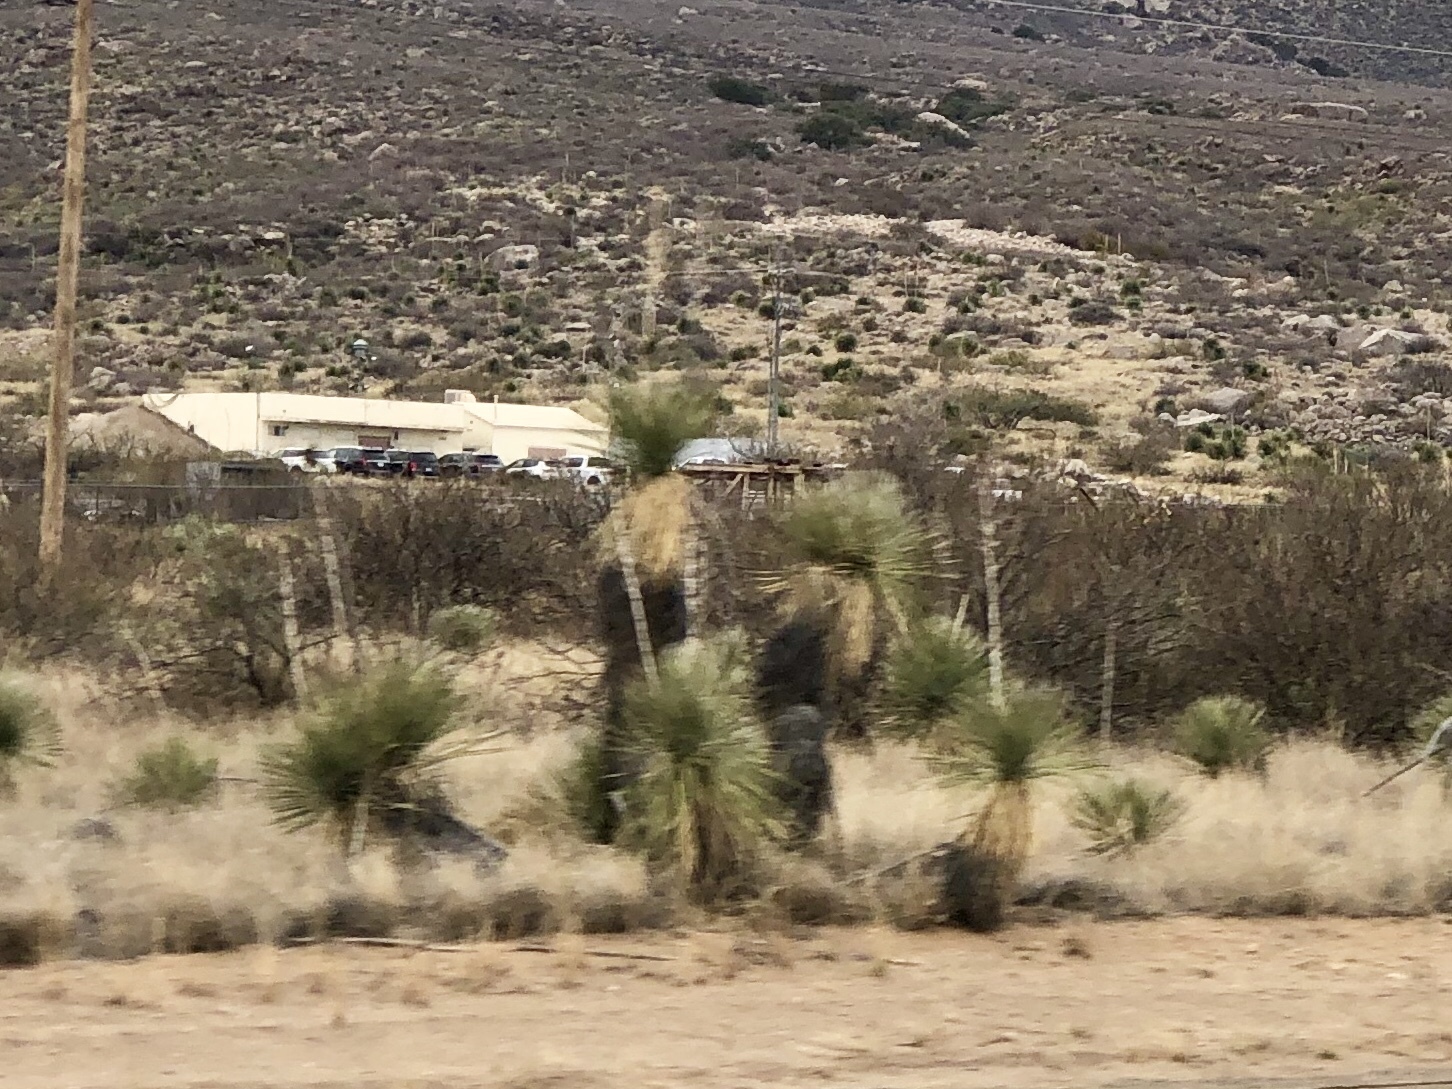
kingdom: Plantae
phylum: Tracheophyta
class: Liliopsida
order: Asparagales
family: Asparagaceae
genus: Yucca
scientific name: Yucca elata
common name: Palmella
